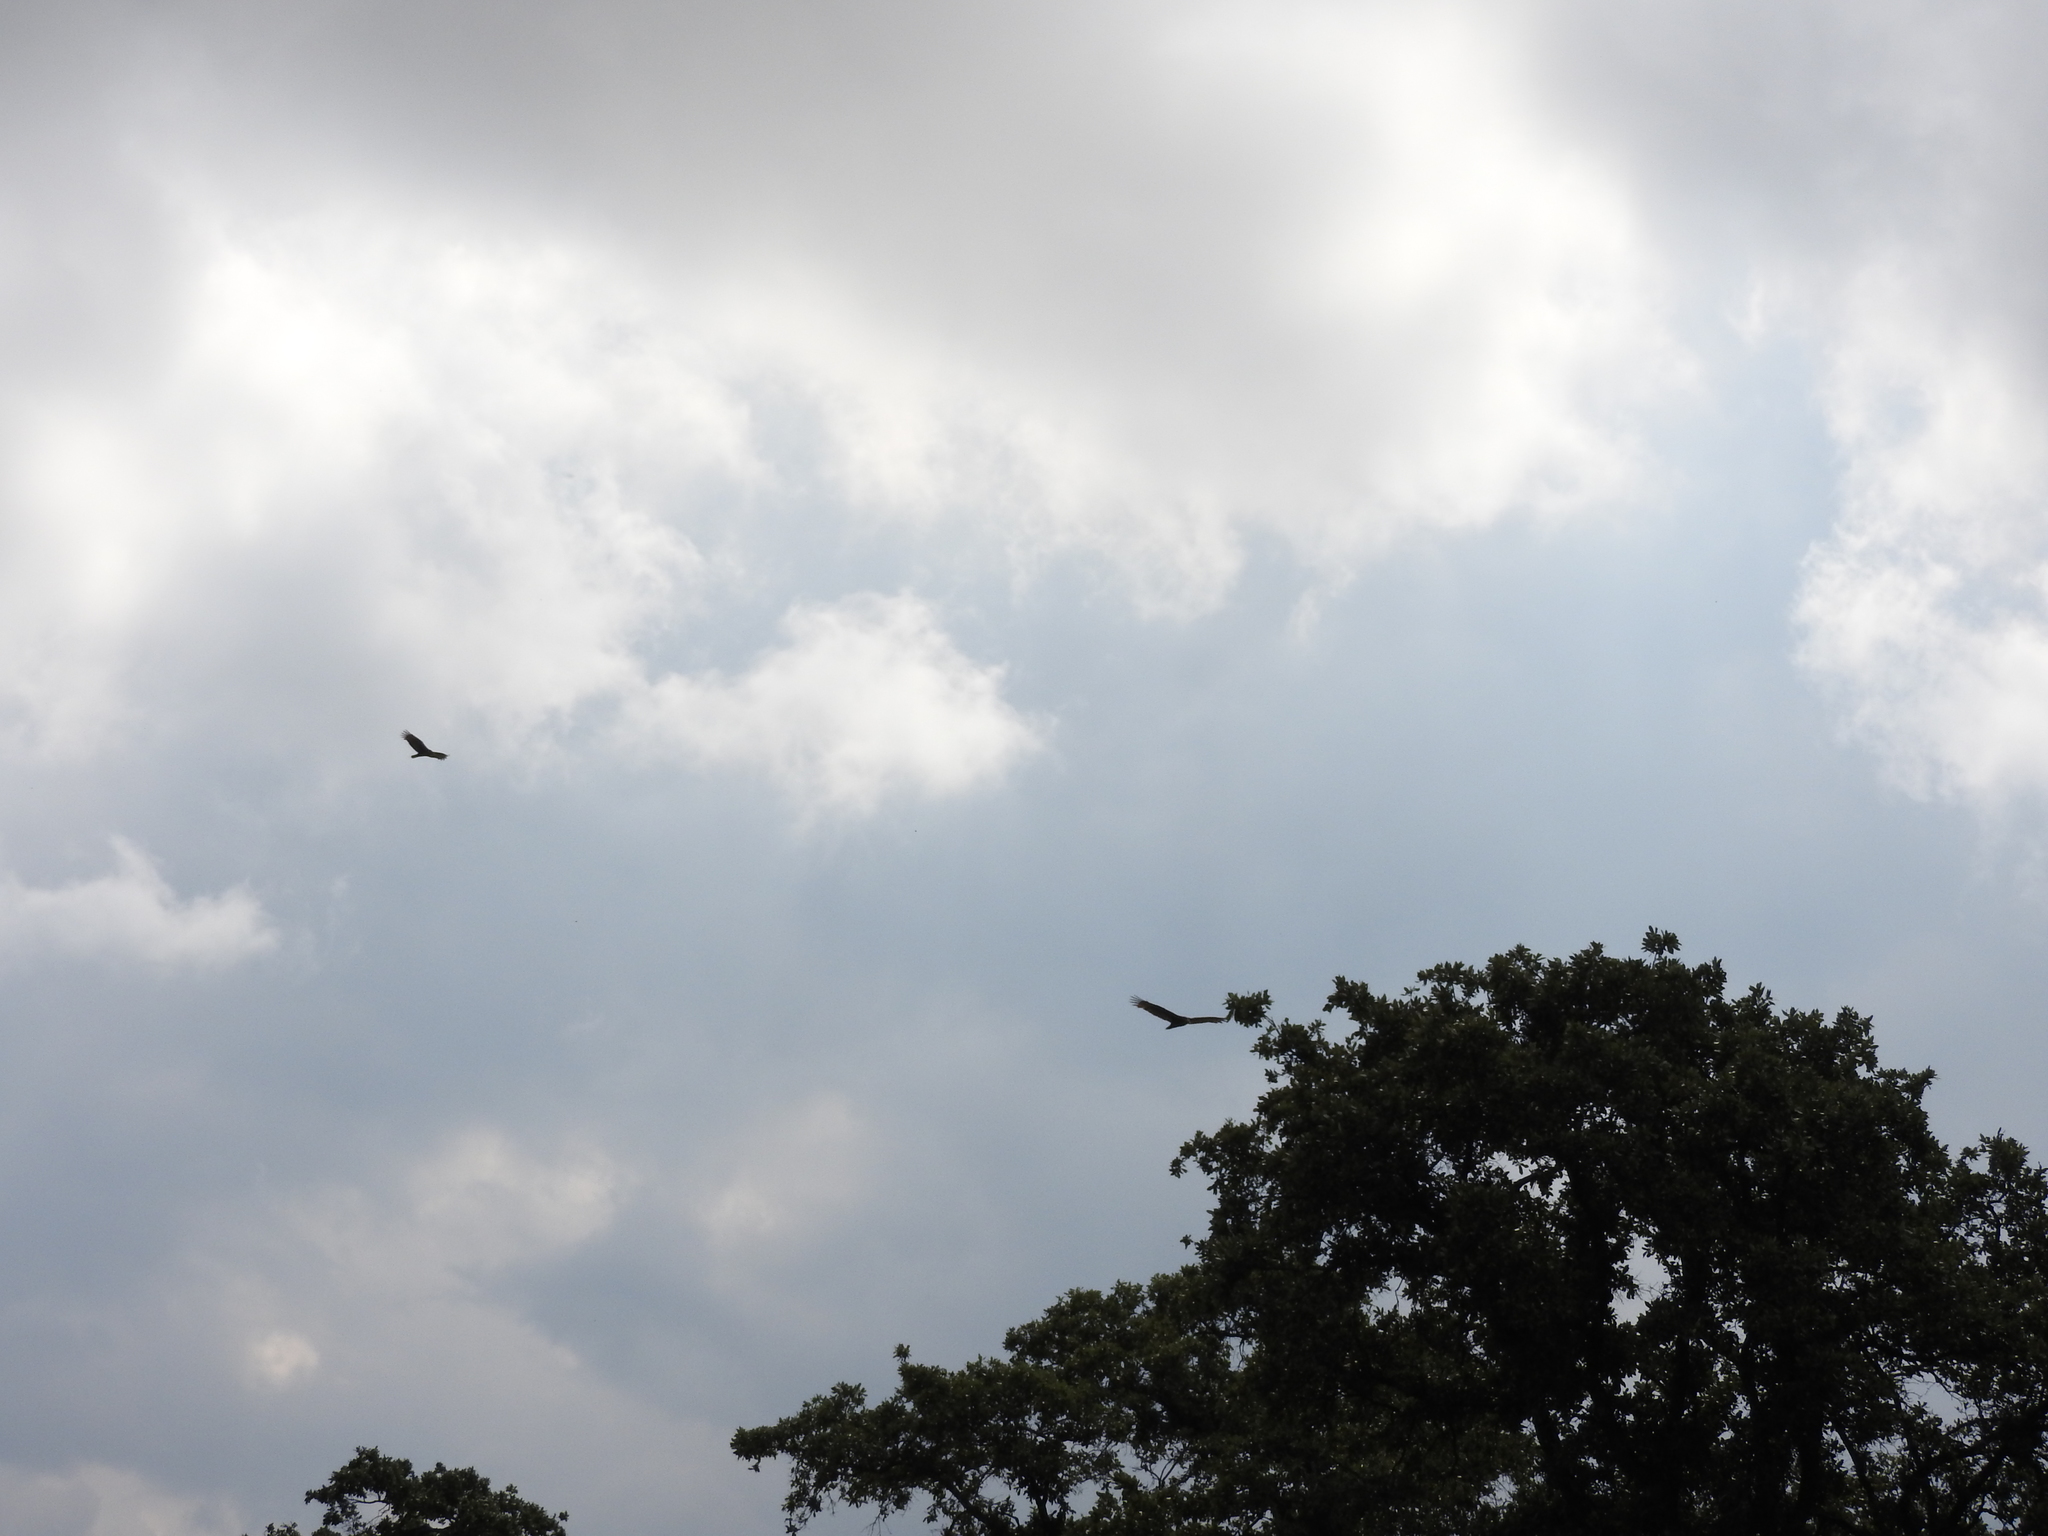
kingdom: Animalia
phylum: Chordata
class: Aves
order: Accipitriformes
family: Cathartidae
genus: Cathartes
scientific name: Cathartes aura
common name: Turkey vulture
